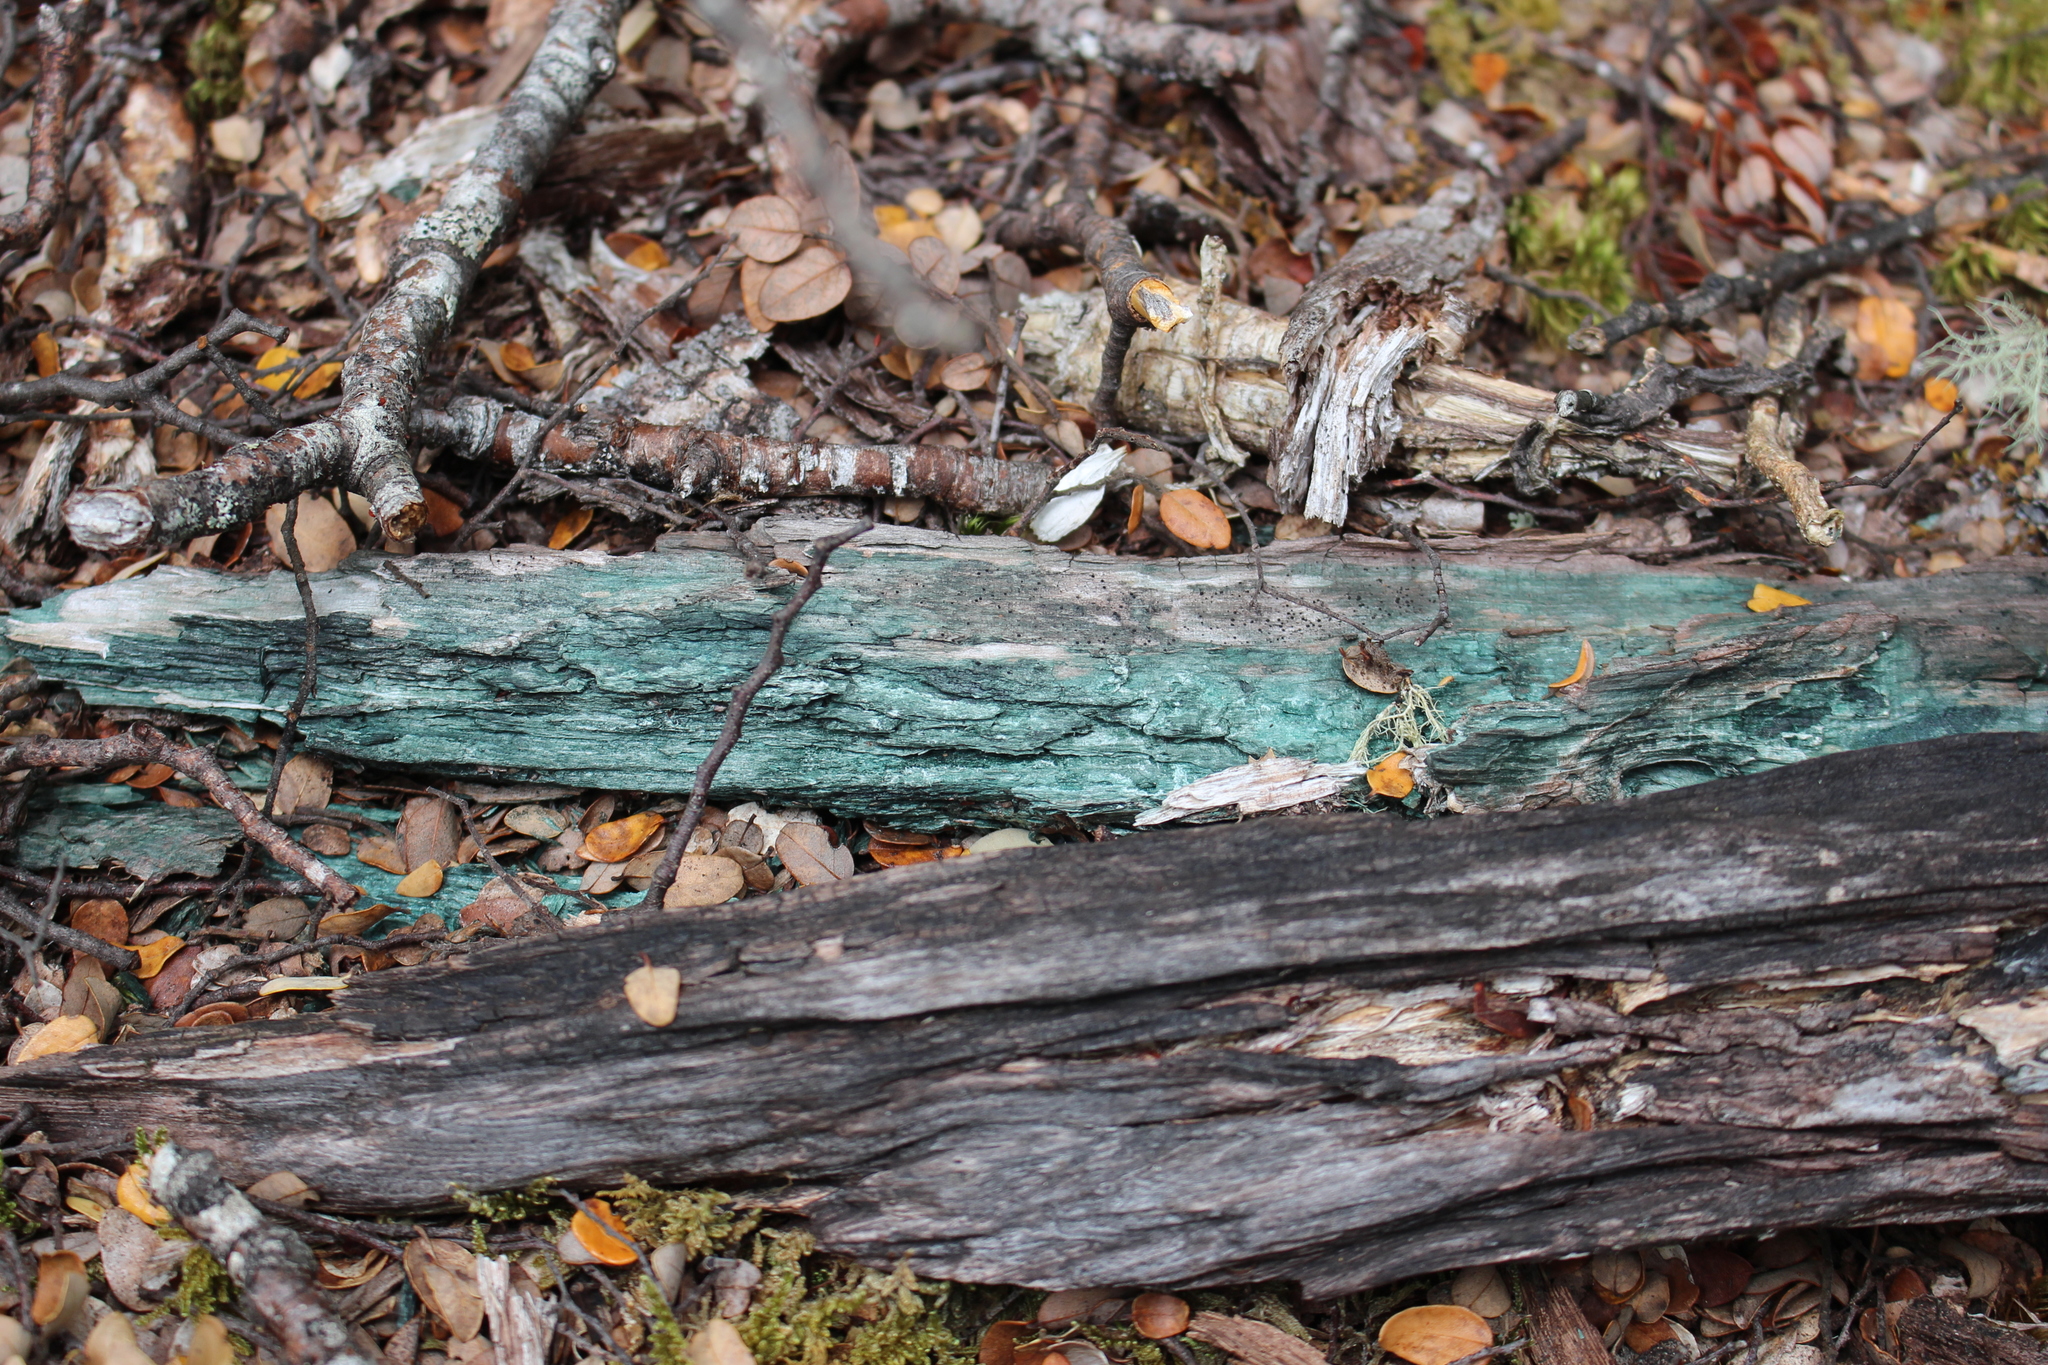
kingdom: Fungi
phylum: Ascomycota
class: Leotiomycetes
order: Helotiales
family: Chlorociboriaceae
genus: Chlorociboria
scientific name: Chlorociboria
